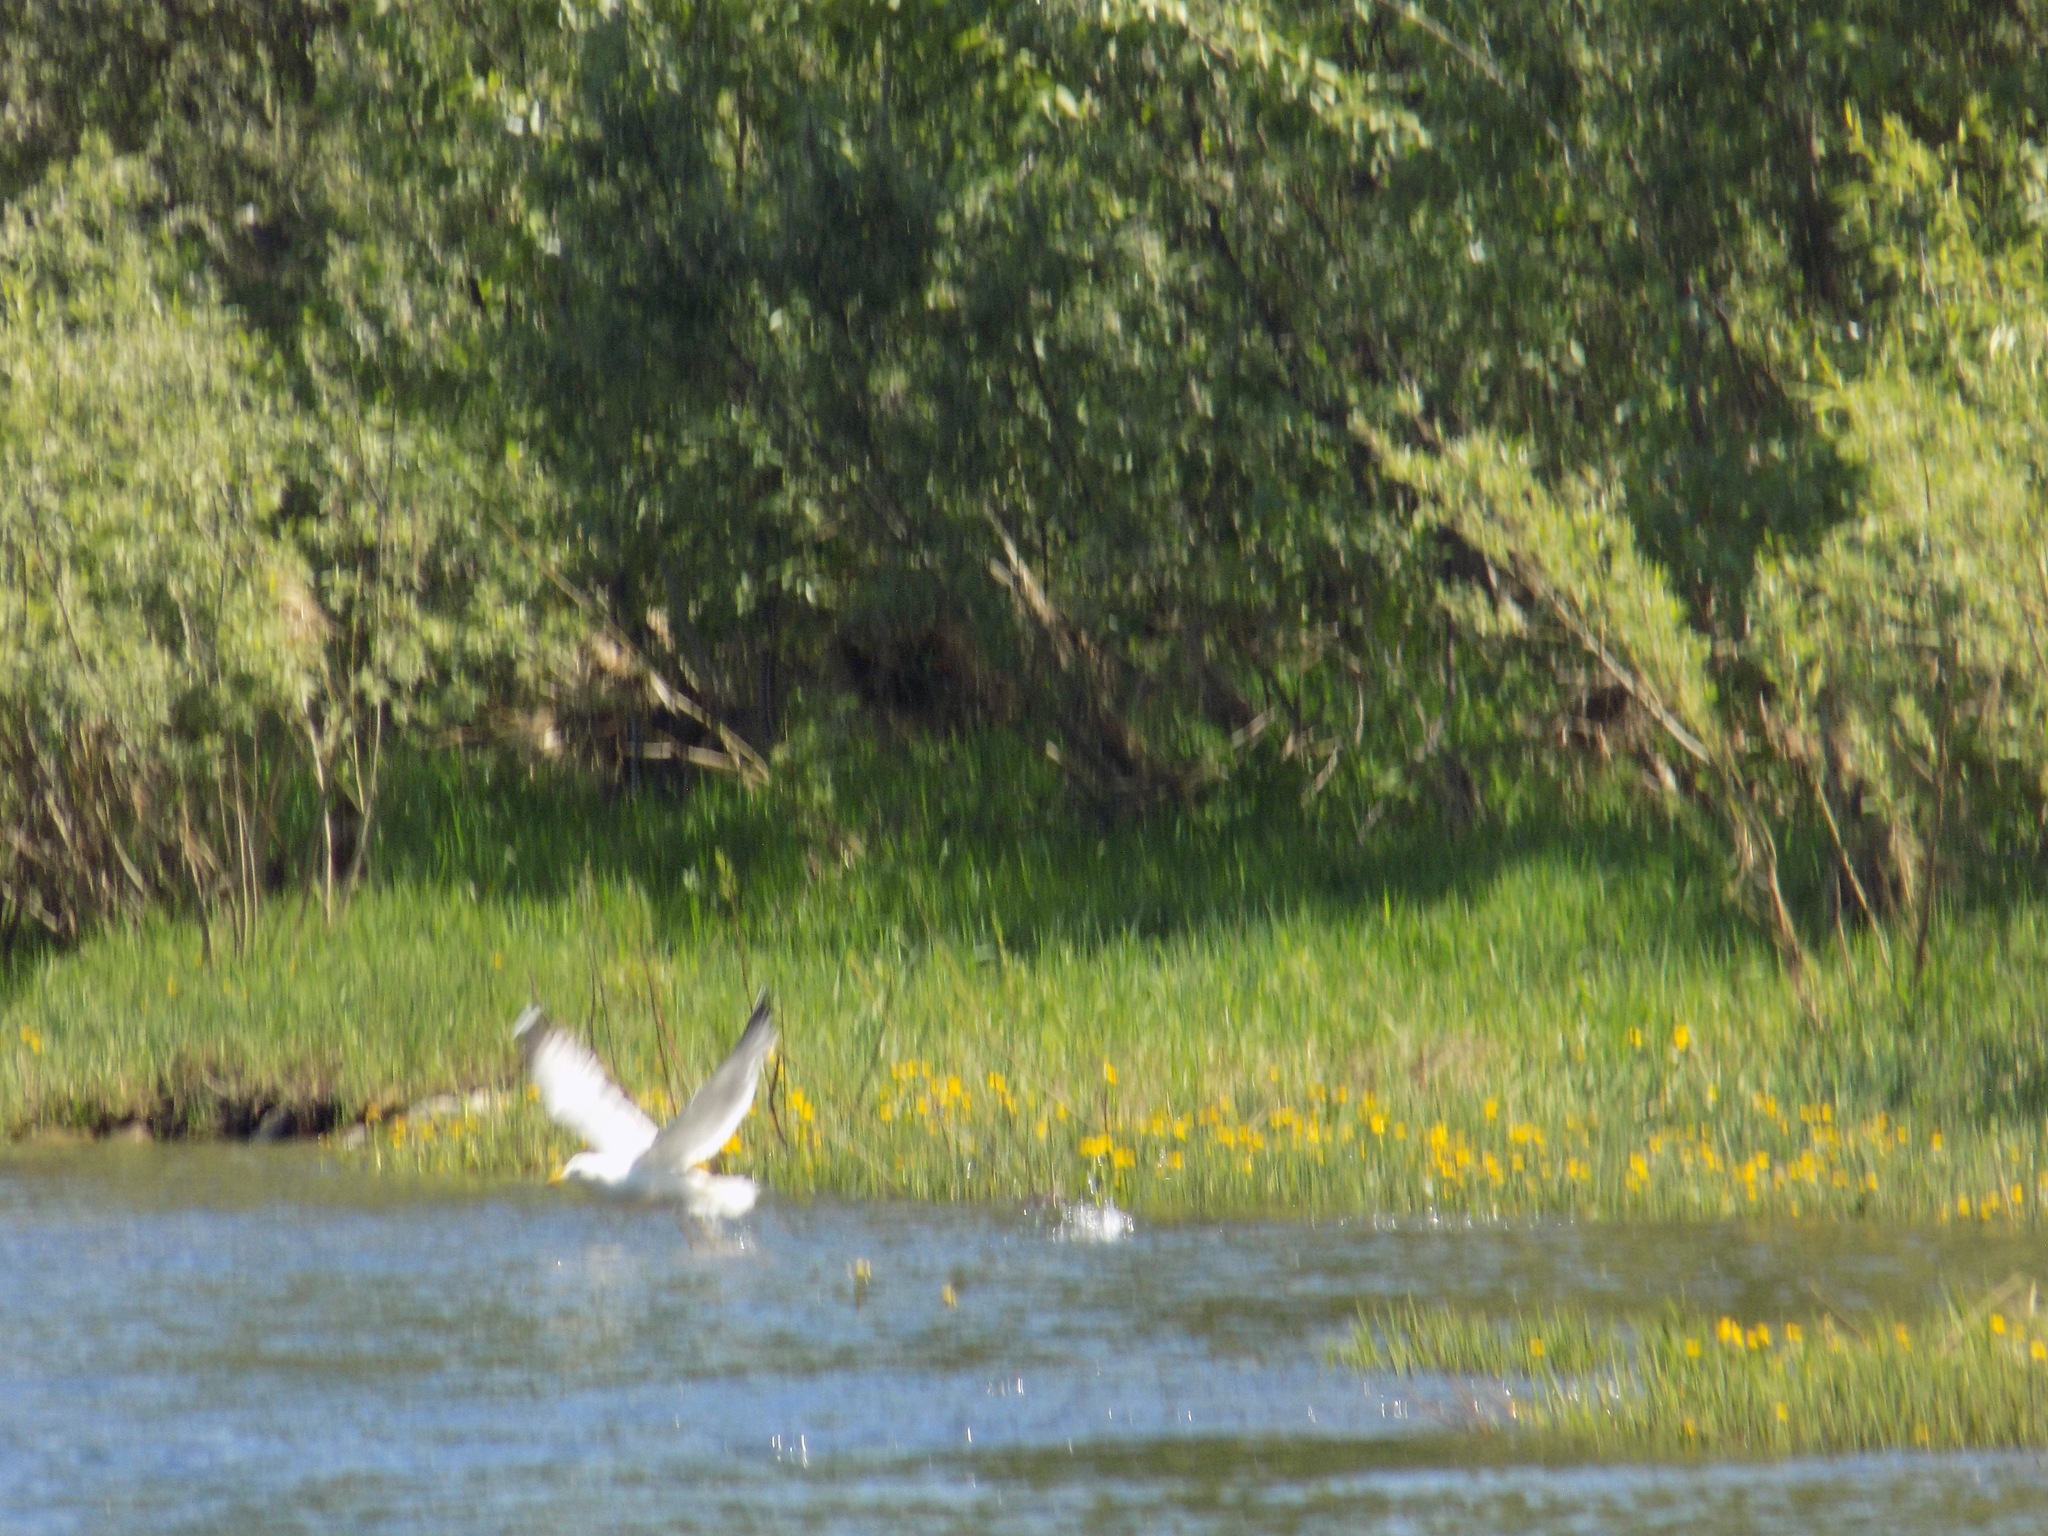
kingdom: Animalia
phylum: Chordata
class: Aves
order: Charadriiformes
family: Laridae
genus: Larus
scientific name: Larus fuscus
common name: Lesser black-backed gull
